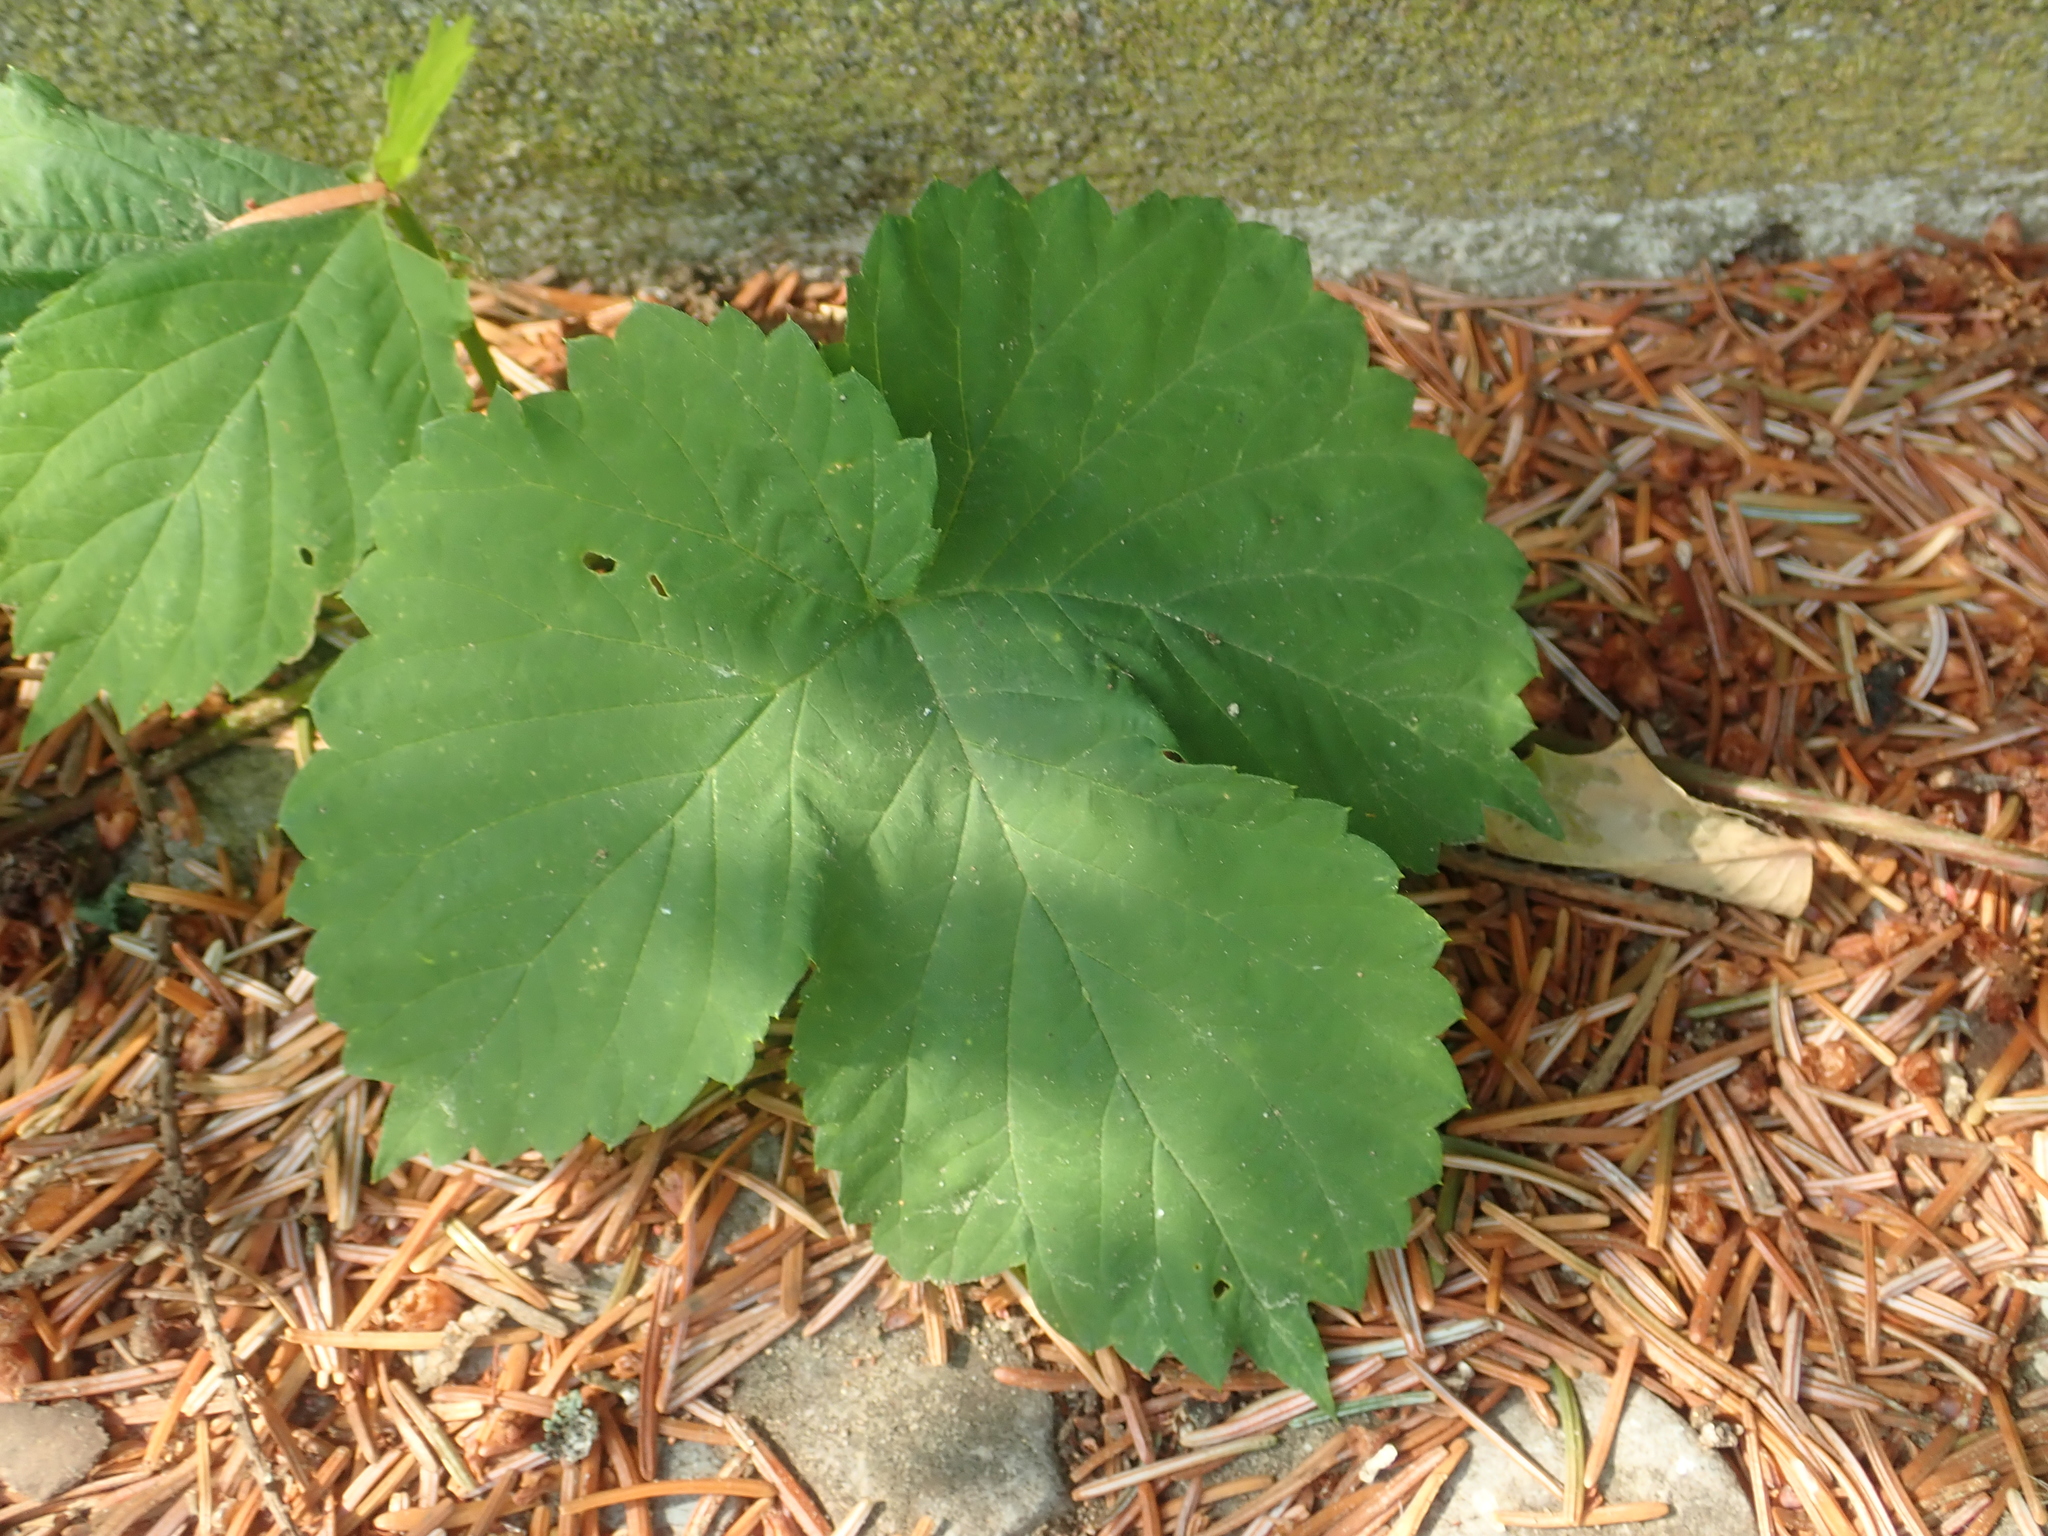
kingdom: Plantae
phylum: Tracheophyta
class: Magnoliopsida
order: Rosales
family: Cannabaceae
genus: Humulus
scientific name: Humulus lupulus
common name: Hop
